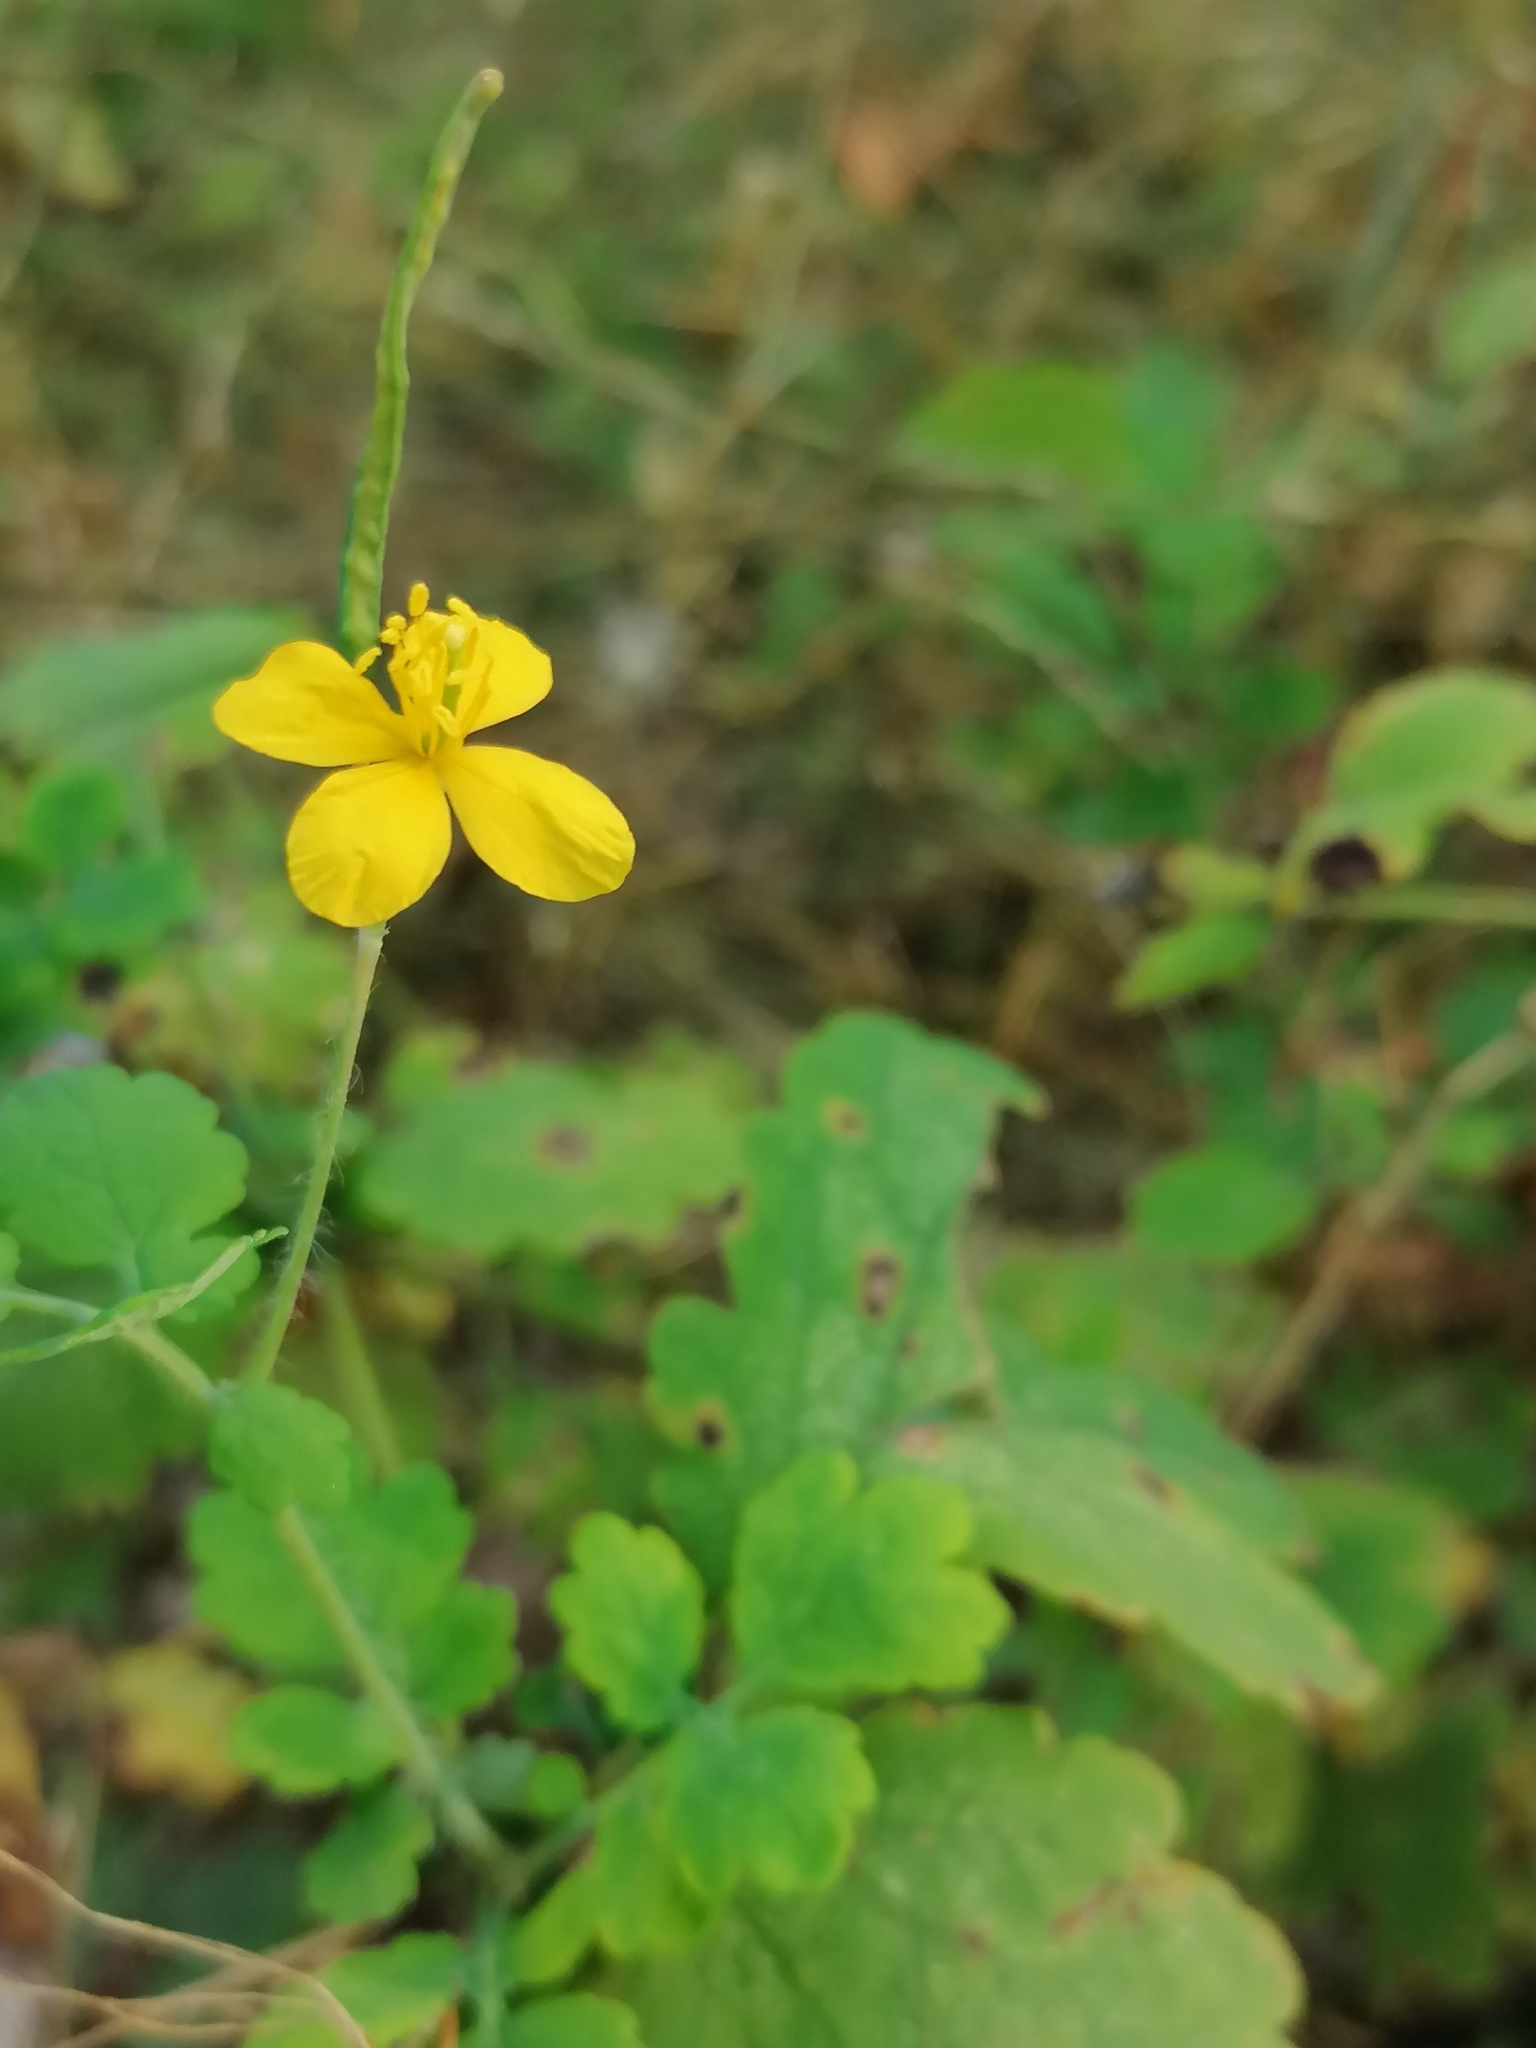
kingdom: Plantae
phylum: Tracheophyta
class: Magnoliopsida
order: Ranunculales
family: Papaveraceae
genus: Chelidonium
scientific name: Chelidonium majus
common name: Greater celandine
